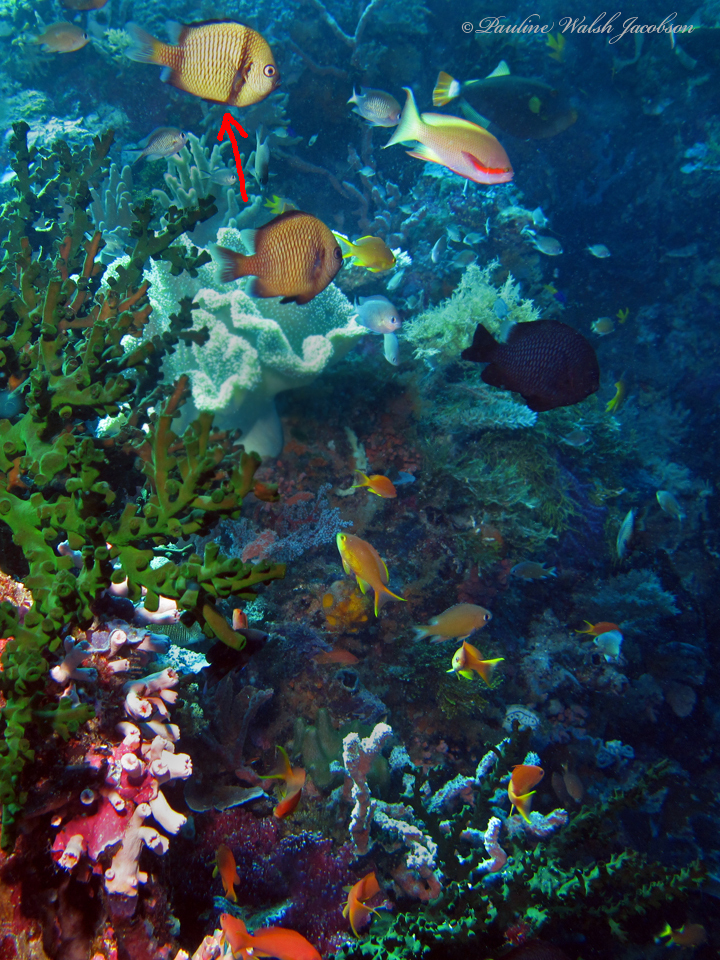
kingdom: Animalia
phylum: Chordata
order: Perciformes
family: Pomacentridae
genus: Dascyllus
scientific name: Dascyllus reticulatus
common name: Reticulated dascyllus
